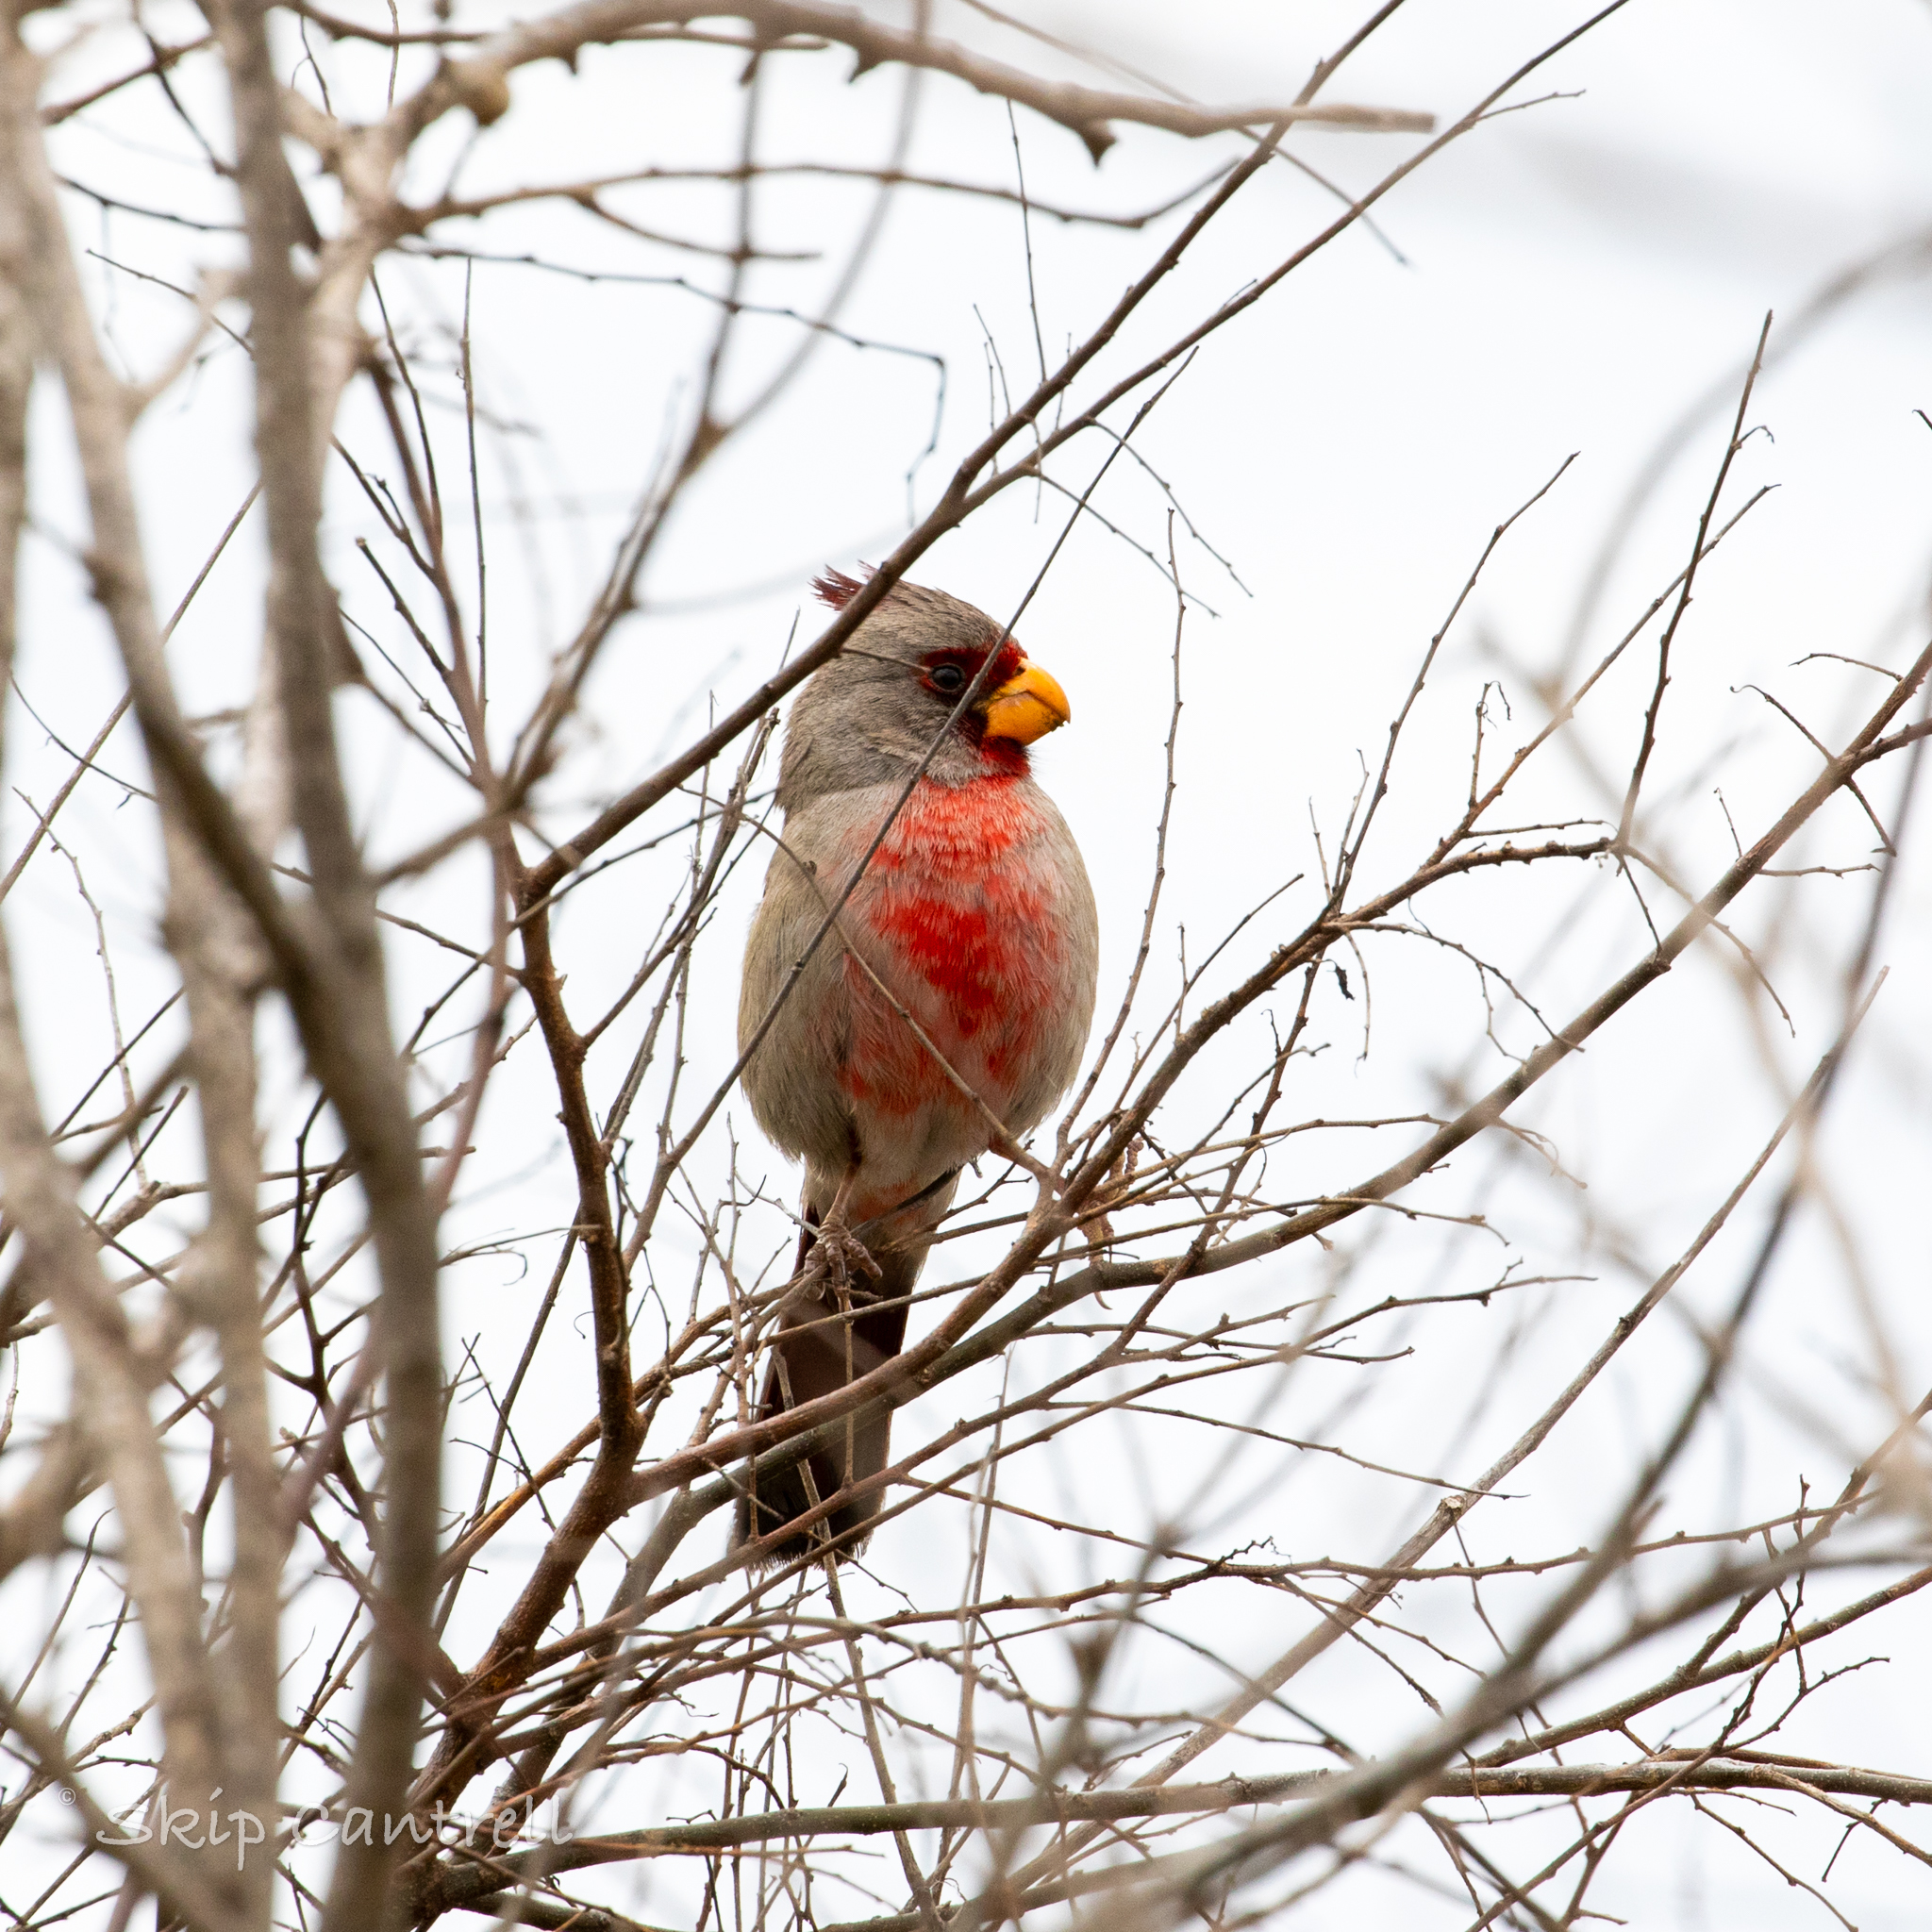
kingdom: Animalia
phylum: Chordata
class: Aves
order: Passeriformes
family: Cardinalidae
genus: Cardinalis
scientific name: Cardinalis sinuatus
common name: Pyrrhuloxia
